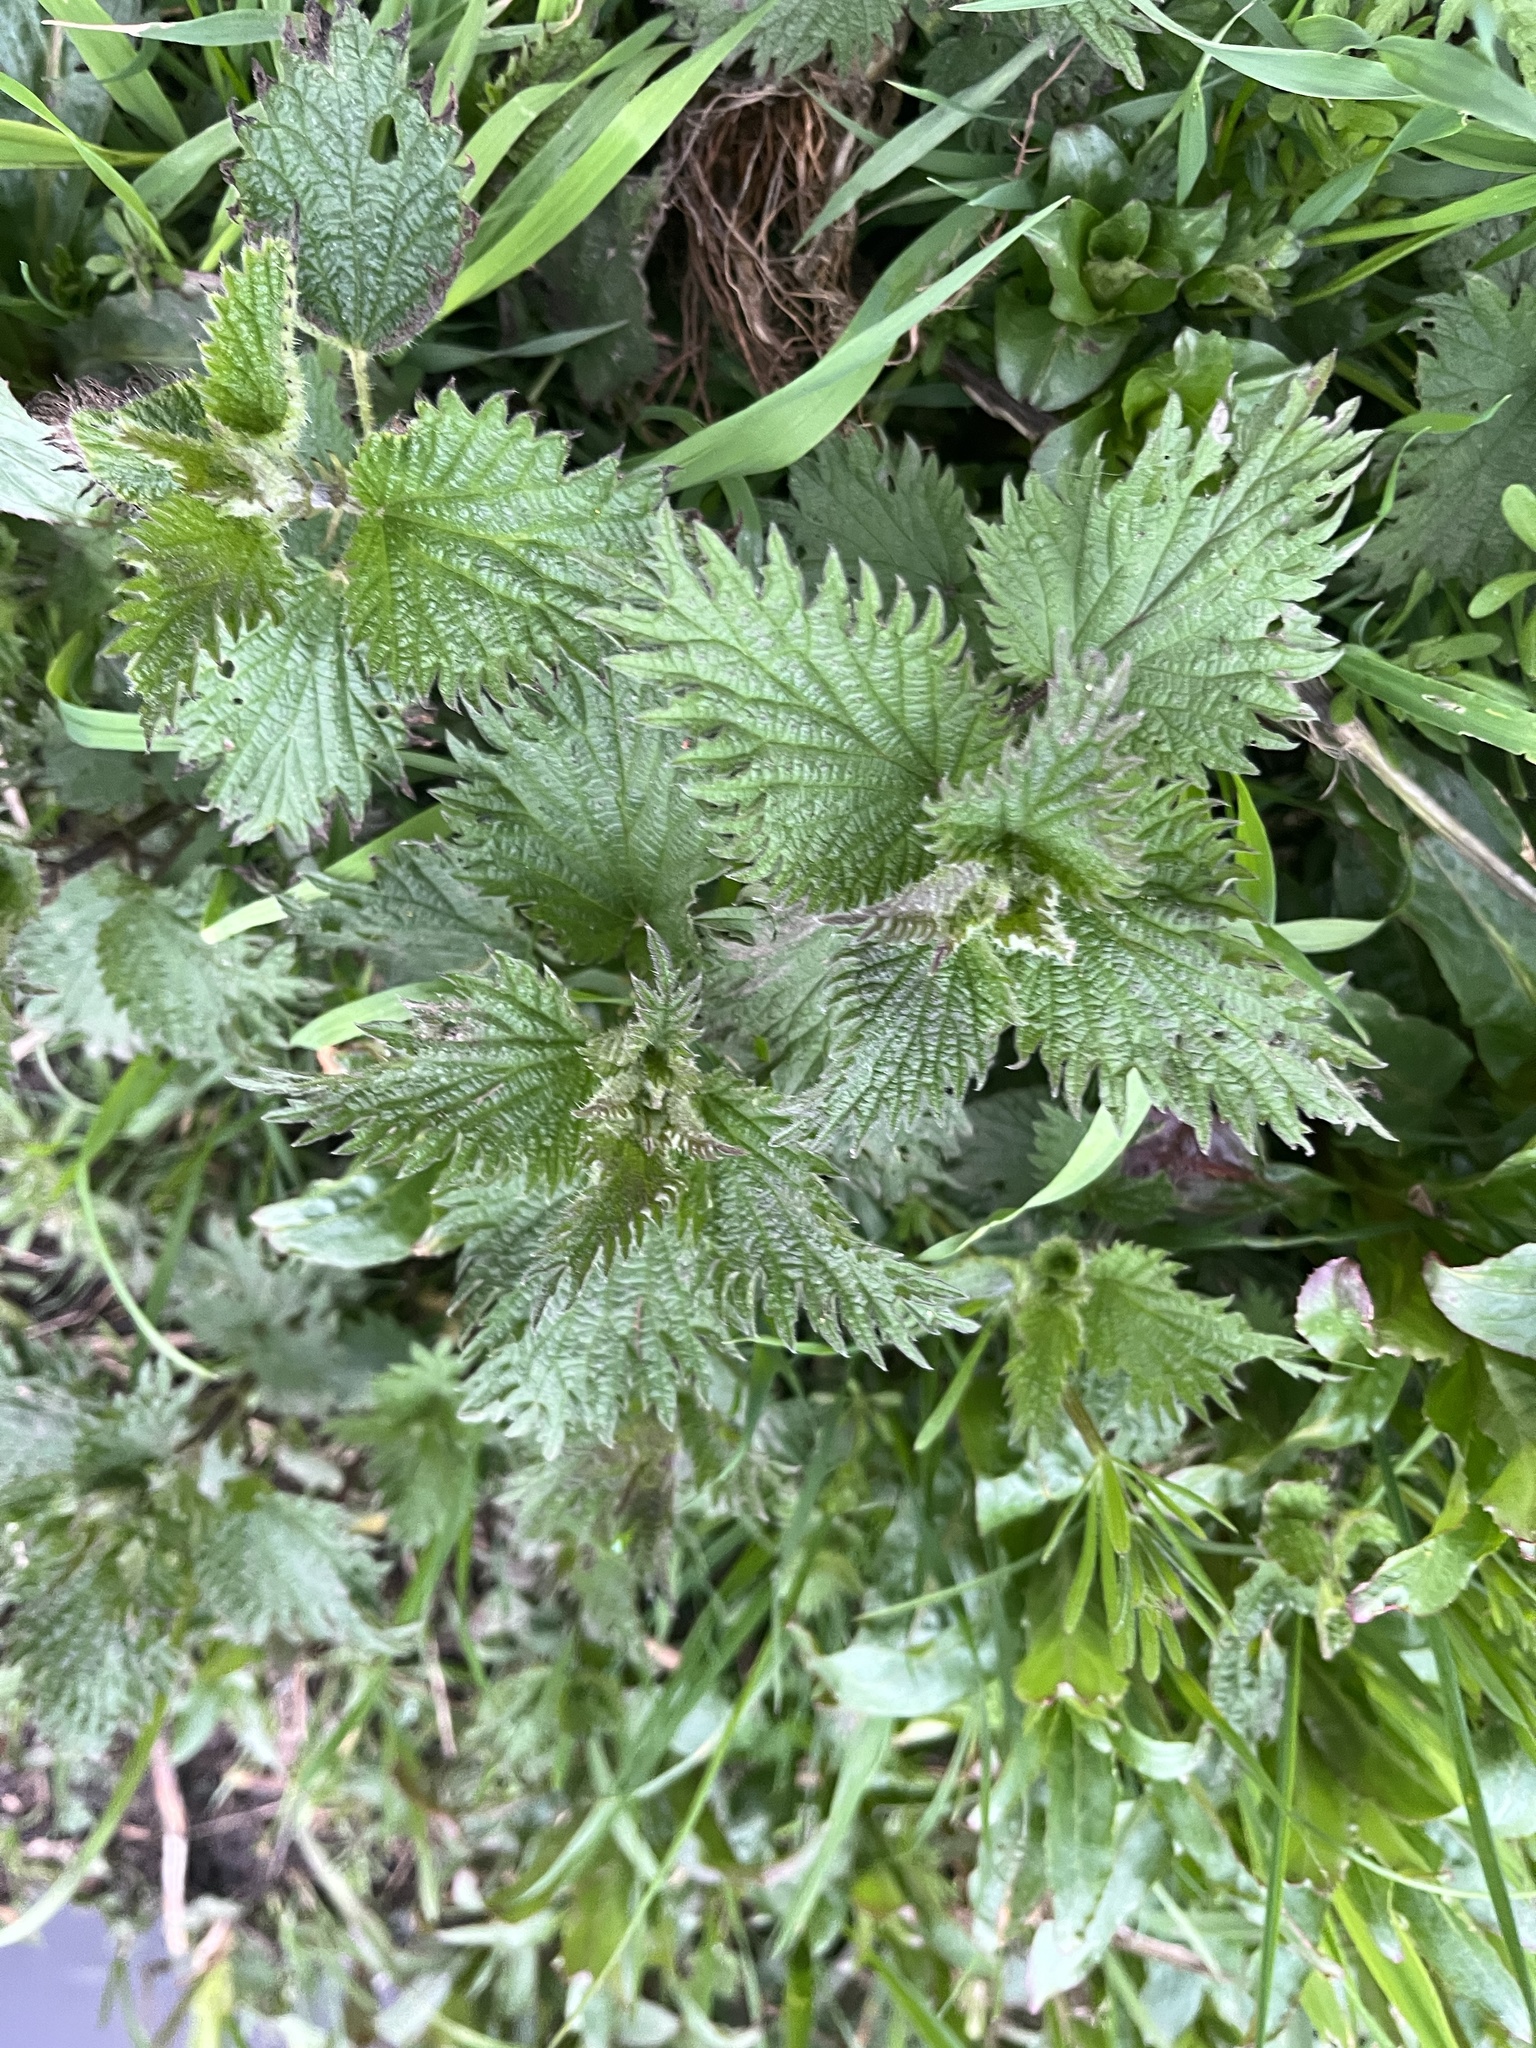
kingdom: Plantae
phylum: Tracheophyta
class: Magnoliopsida
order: Rosales
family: Urticaceae
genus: Urtica
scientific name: Urtica dioica
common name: Common nettle
